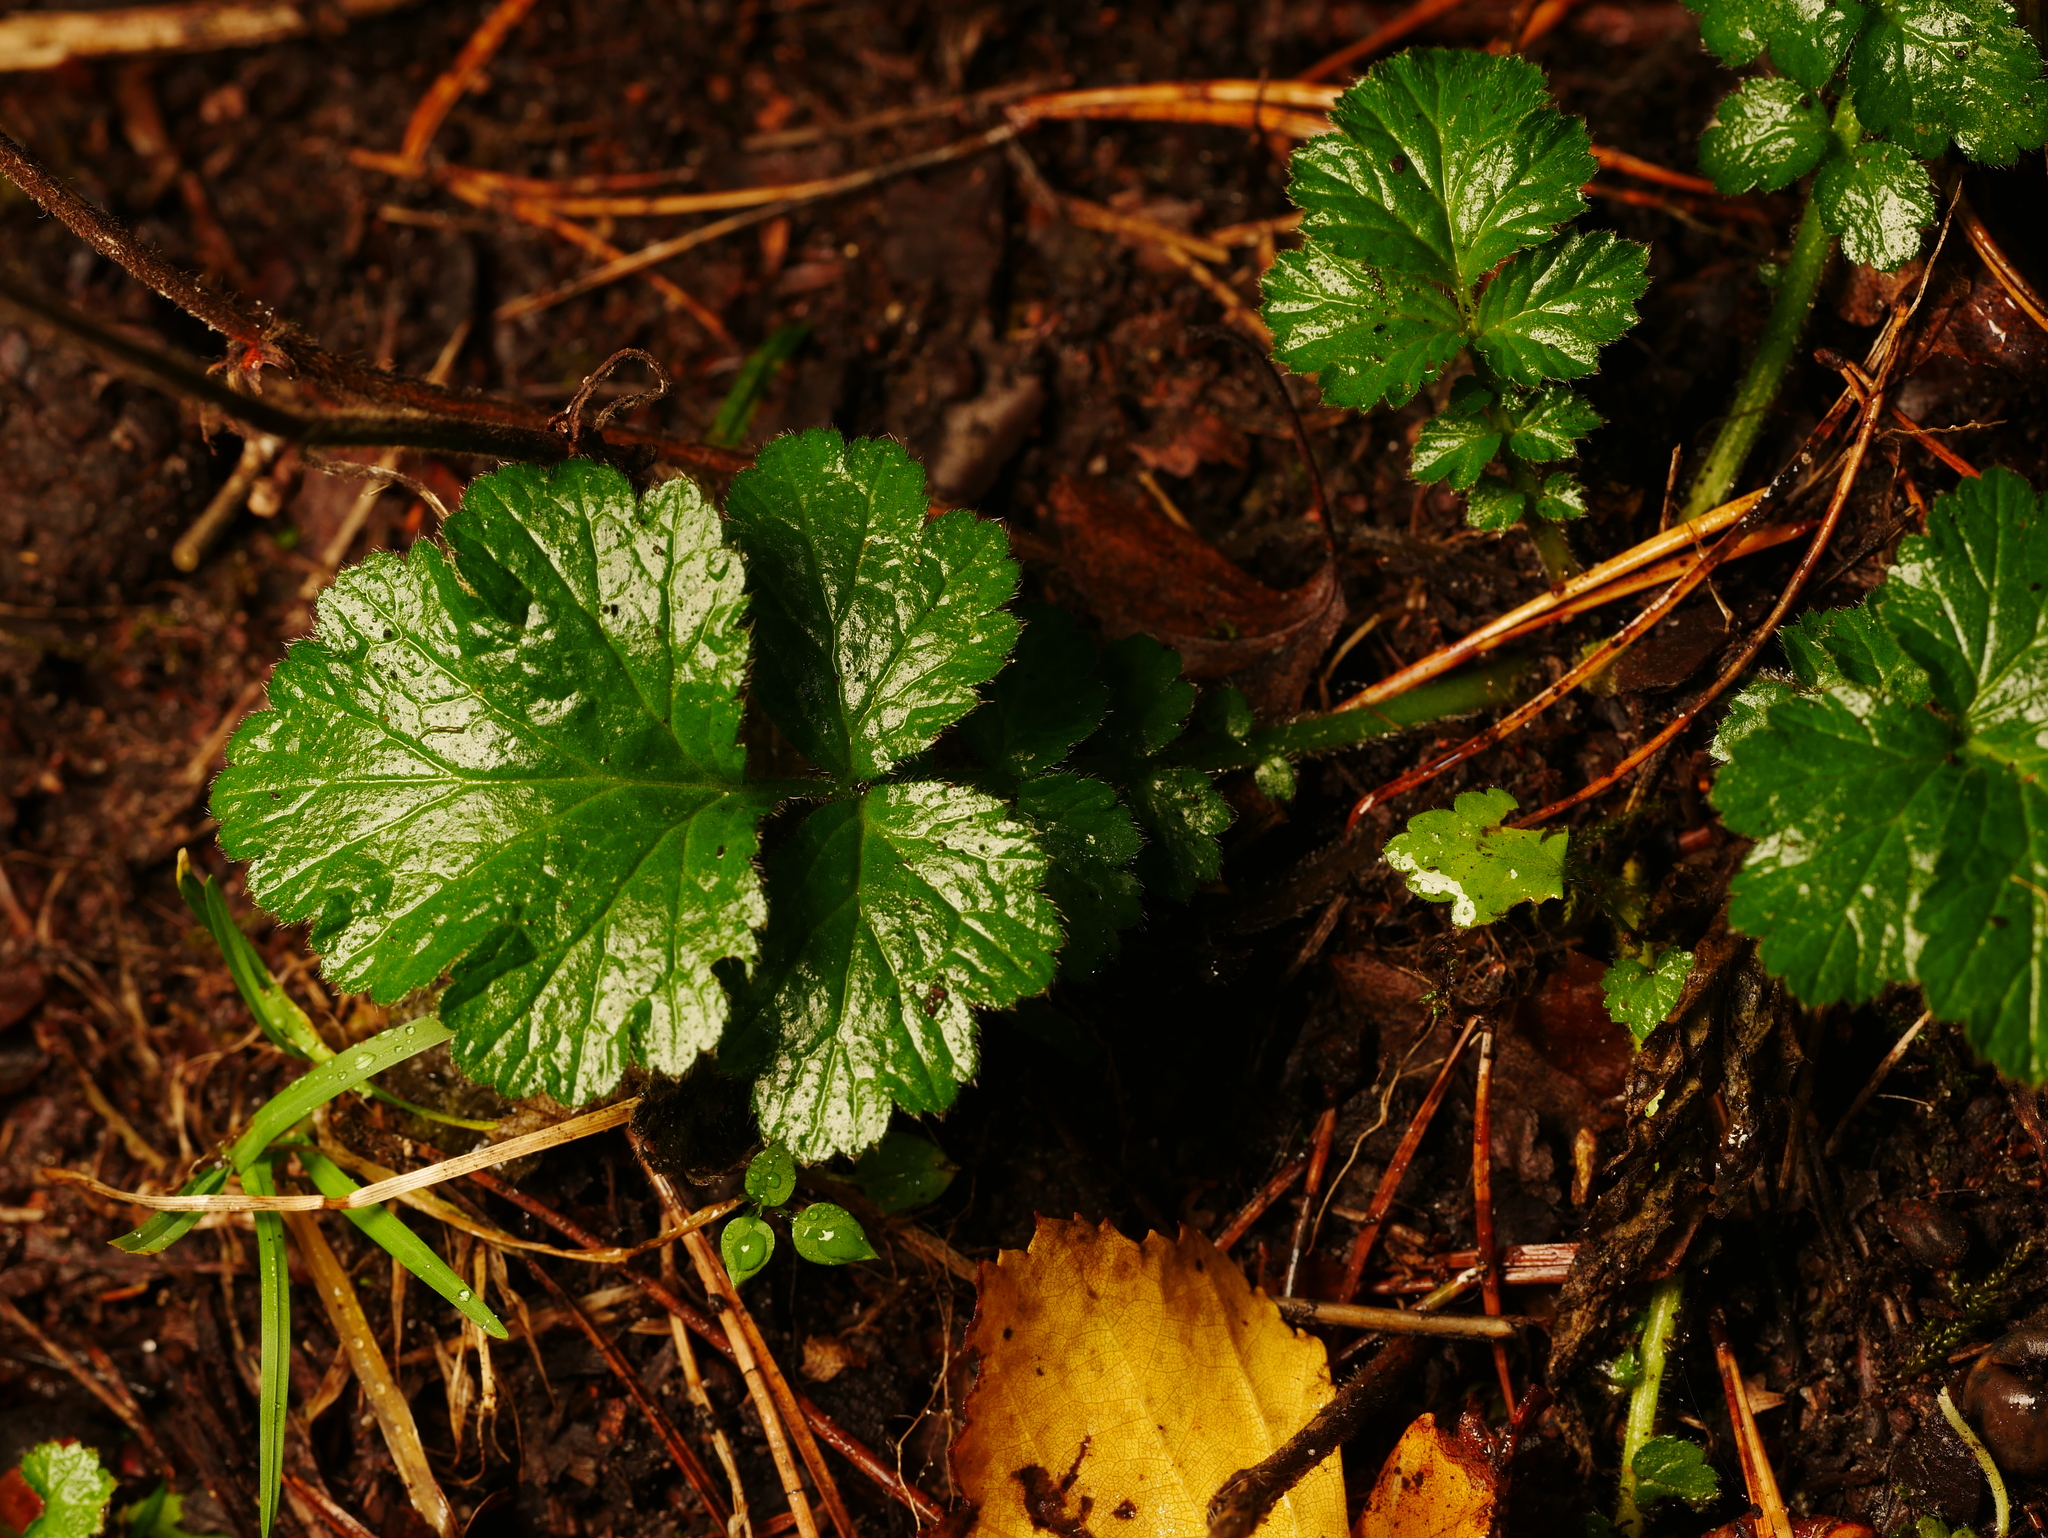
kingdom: Plantae
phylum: Tracheophyta
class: Magnoliopsida
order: Rosales
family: Rosaceae
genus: Geum
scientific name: Geum urbanum
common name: Wood avens
